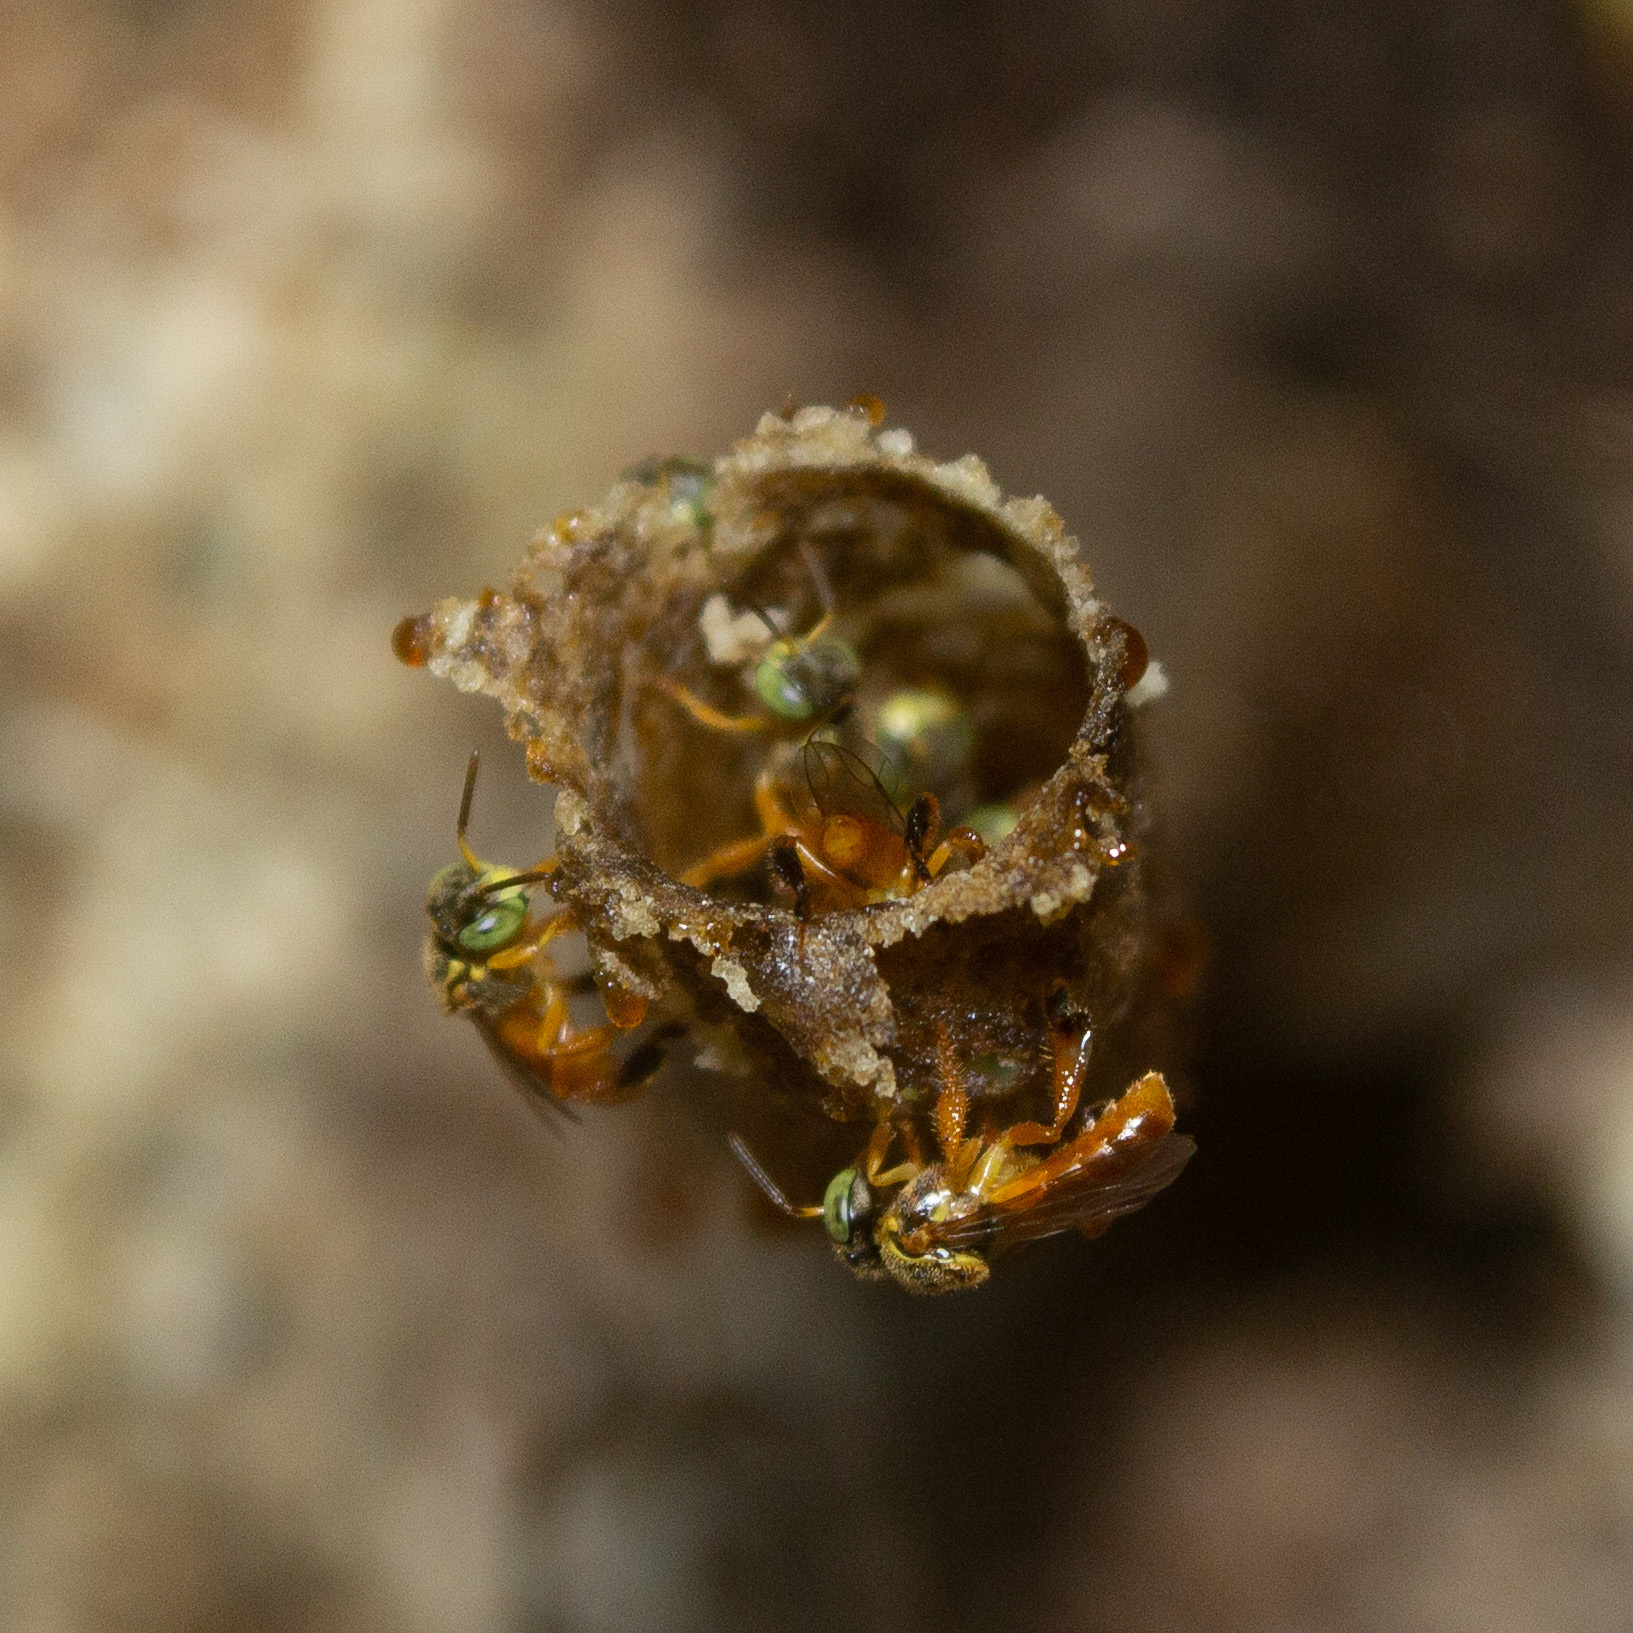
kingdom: Animalia
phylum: Arthropoda
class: Insecta
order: Hymenoptera
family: Apidae
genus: Tetragonisca
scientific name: Tetragonisca angustula
